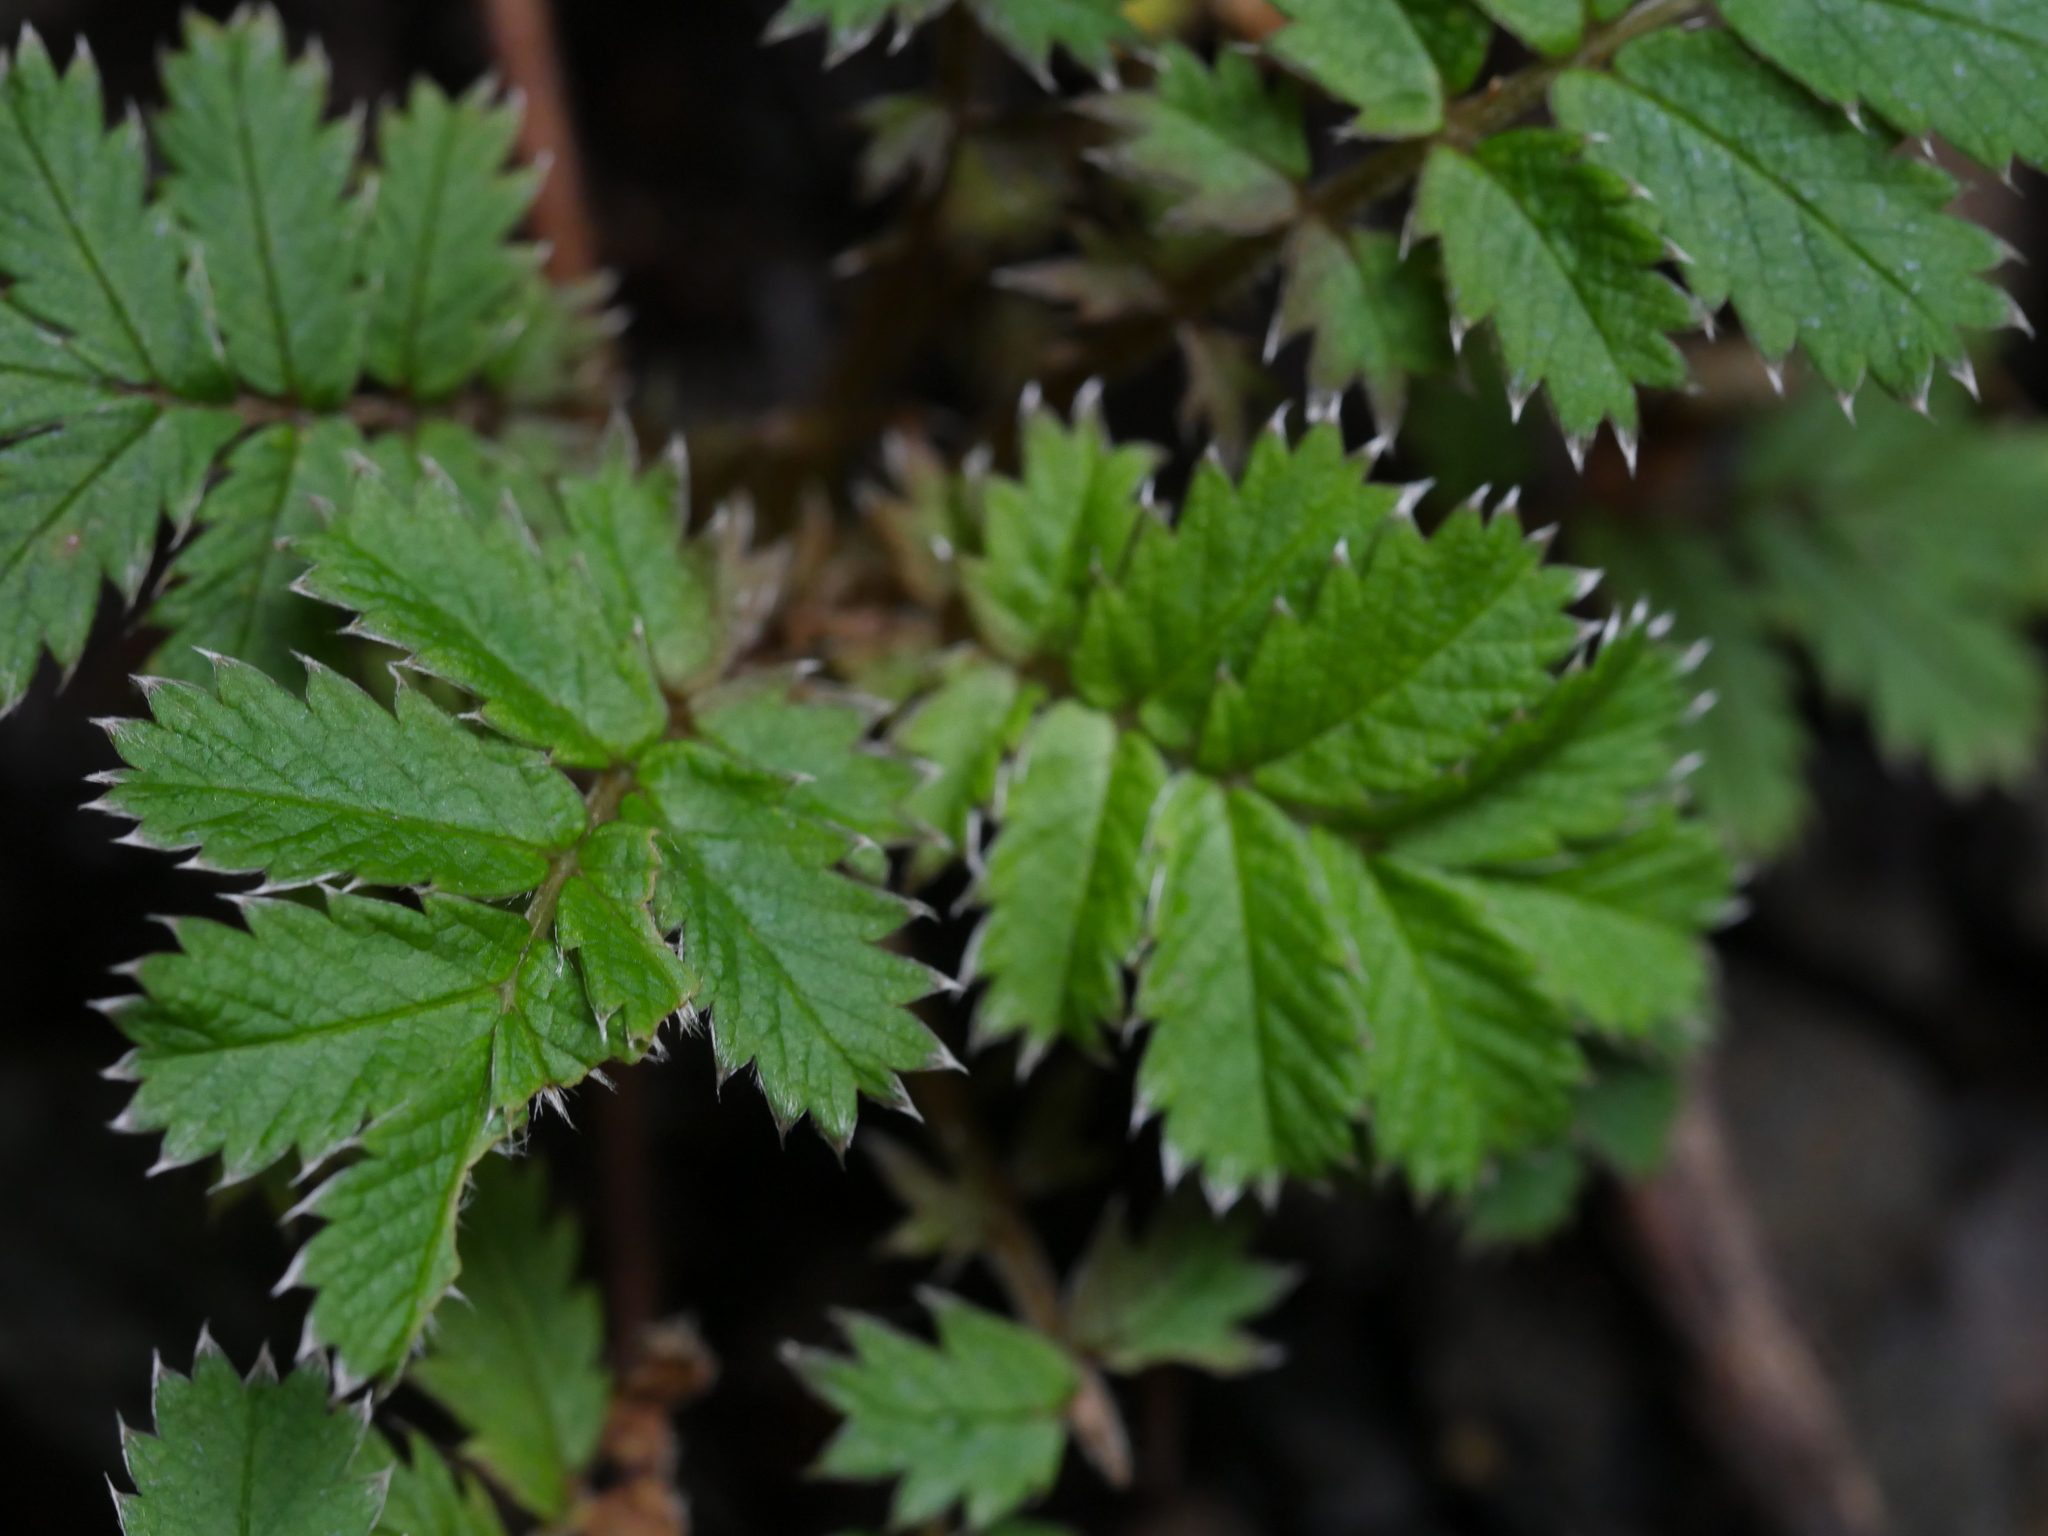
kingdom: Plantae
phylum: Tracheophyta
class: Magnoliopsida
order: Rosales
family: Rosaceae
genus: Acaena
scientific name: Acaena anserinifolia
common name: Bronze pirri-pirri-bur
